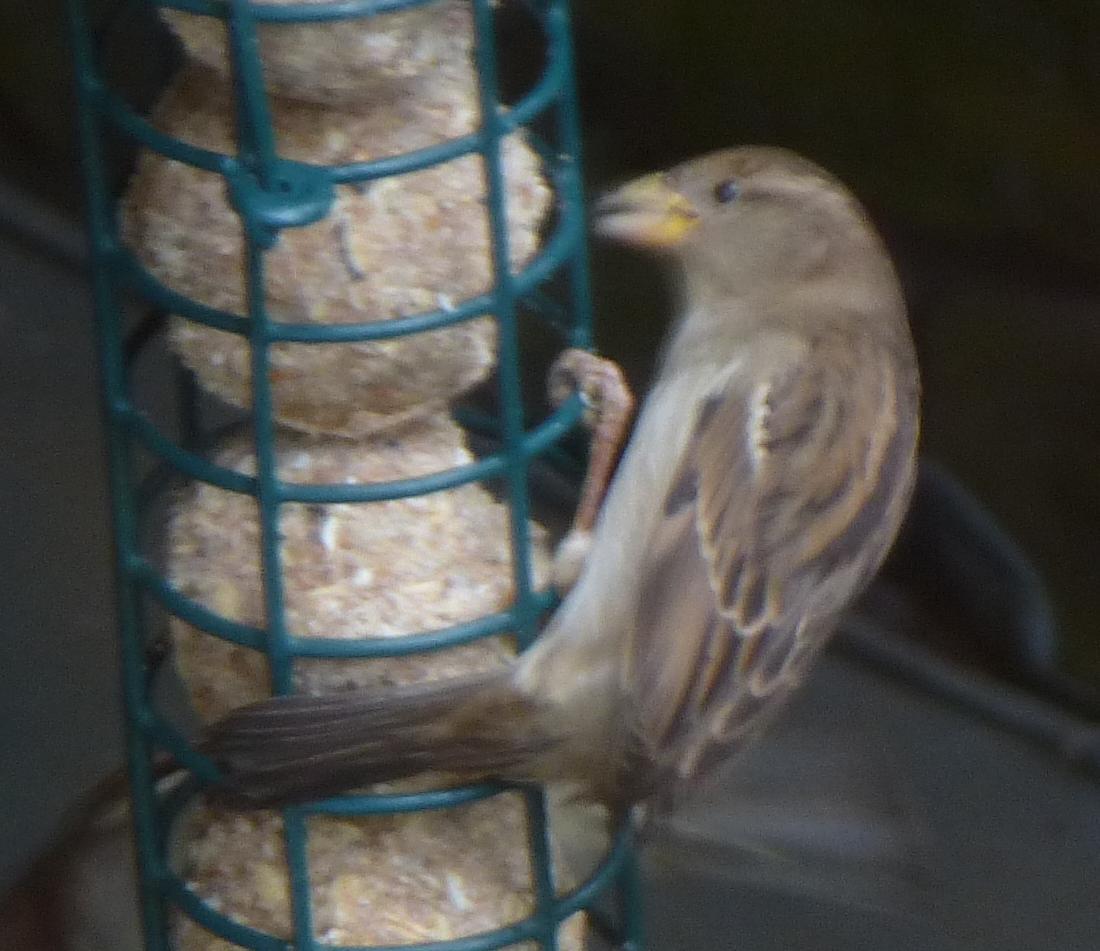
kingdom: Animalia
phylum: Chordata
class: Aves
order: Passeriformes
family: Passeridae
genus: Passer
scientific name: Passer domesticus
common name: House sparrow
